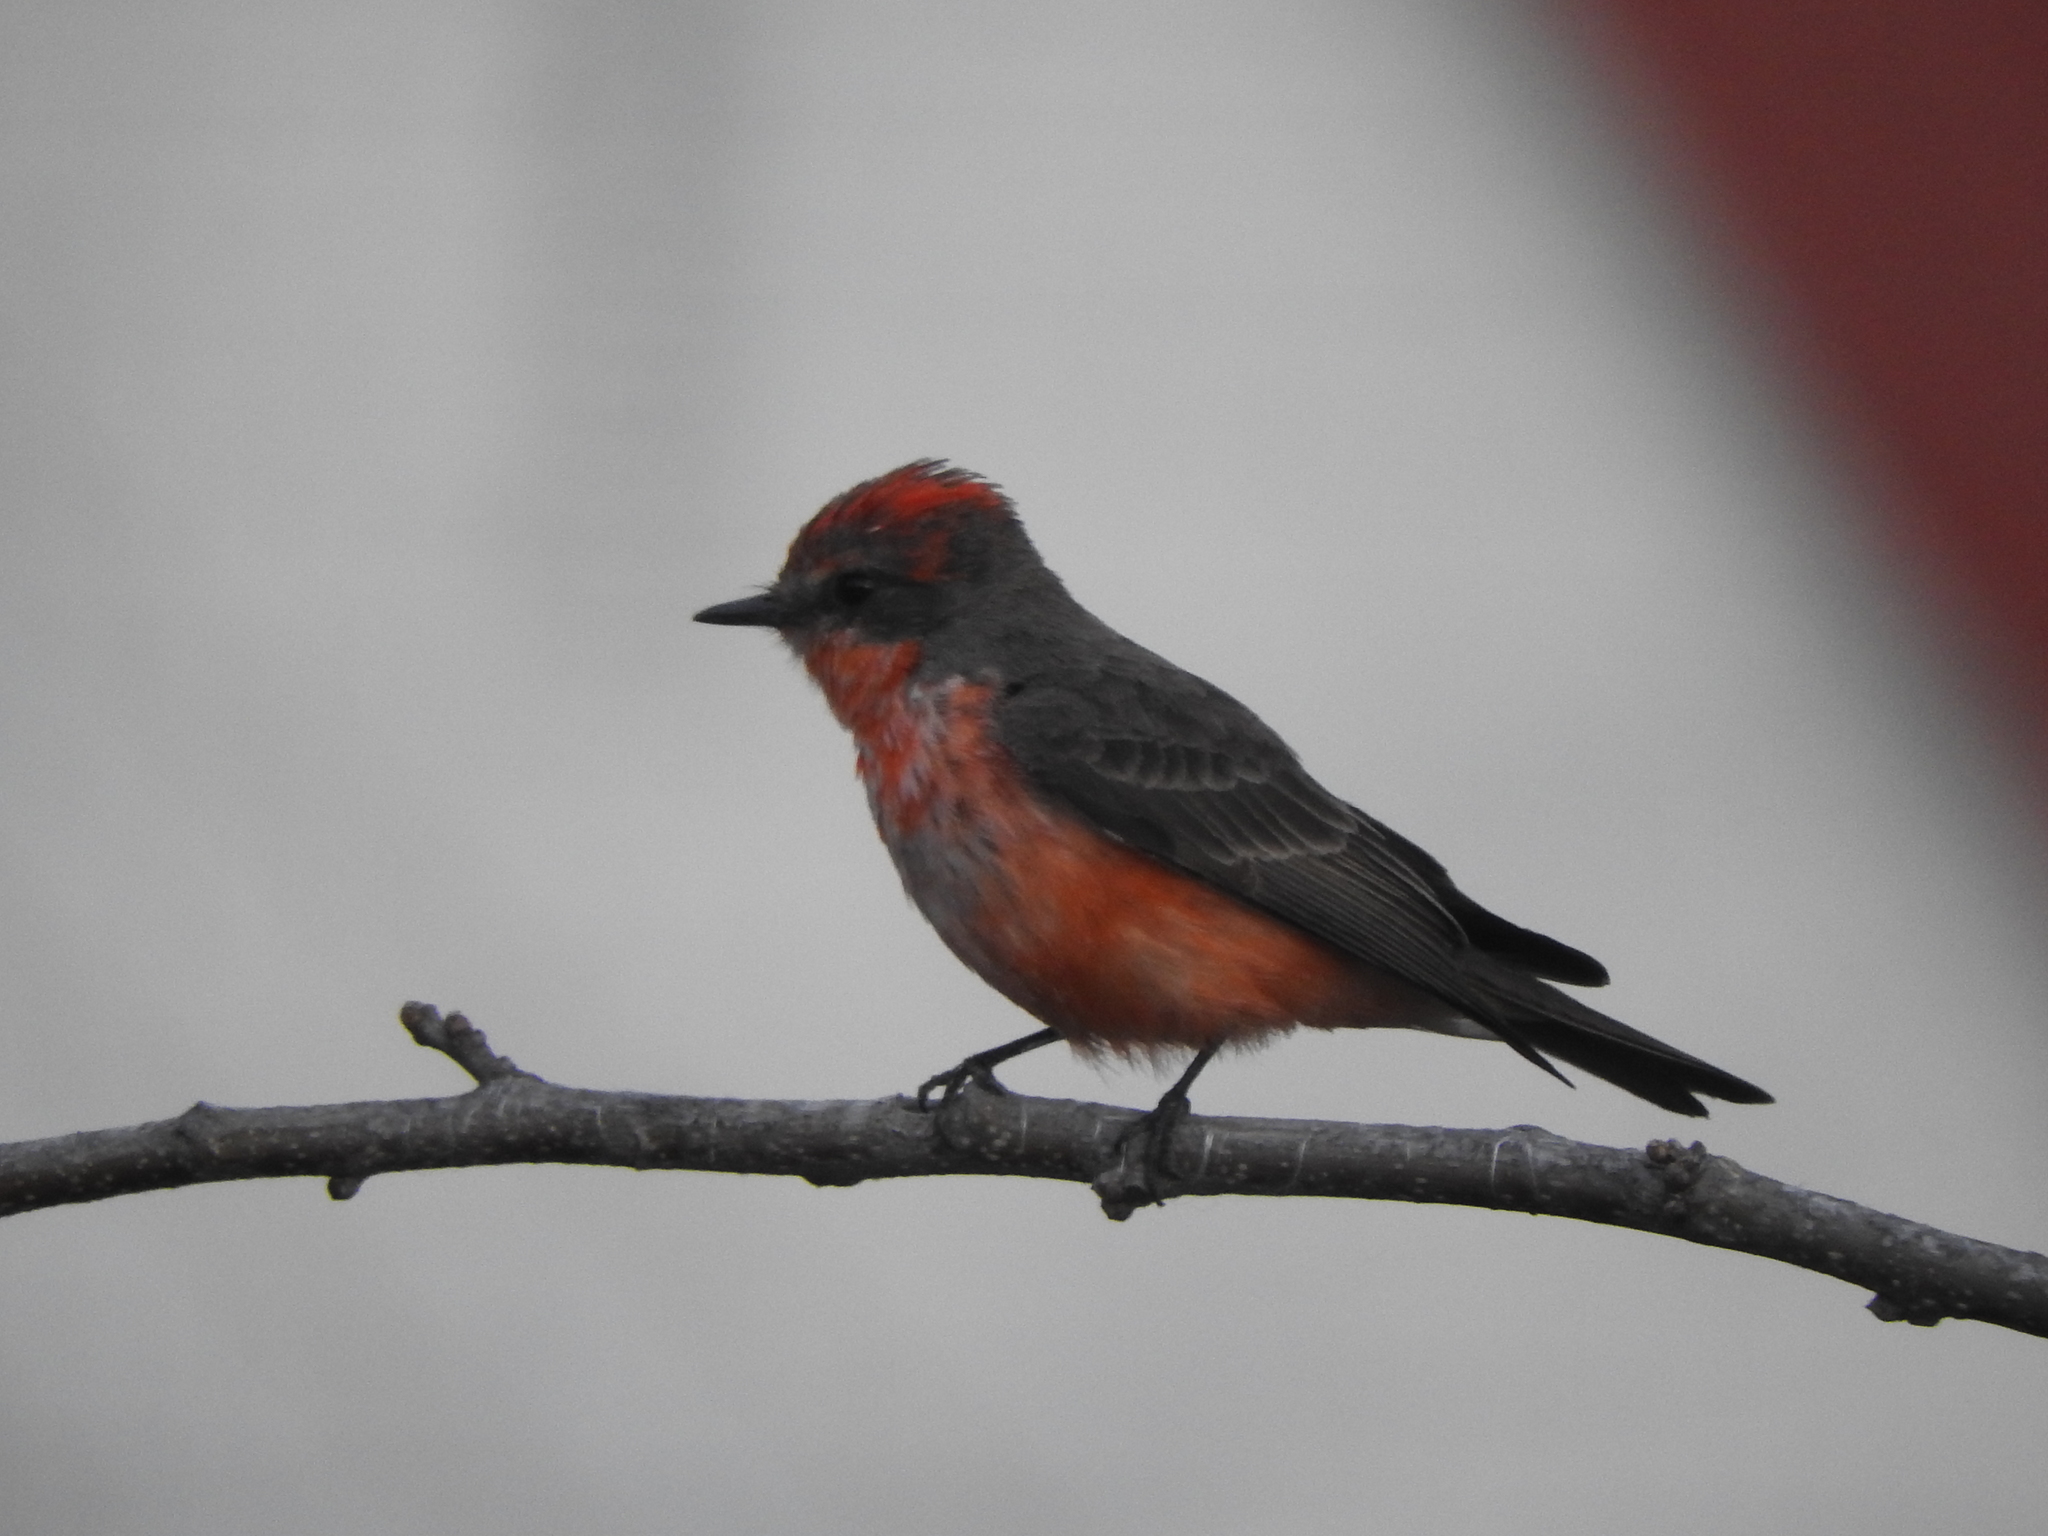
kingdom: Animalia
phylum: Chordata
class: Aves
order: Passeriformes
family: Tyrannidae
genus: Pyrocephalus
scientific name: Pyrocephalus rubinus
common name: Vermilion flycatcher
